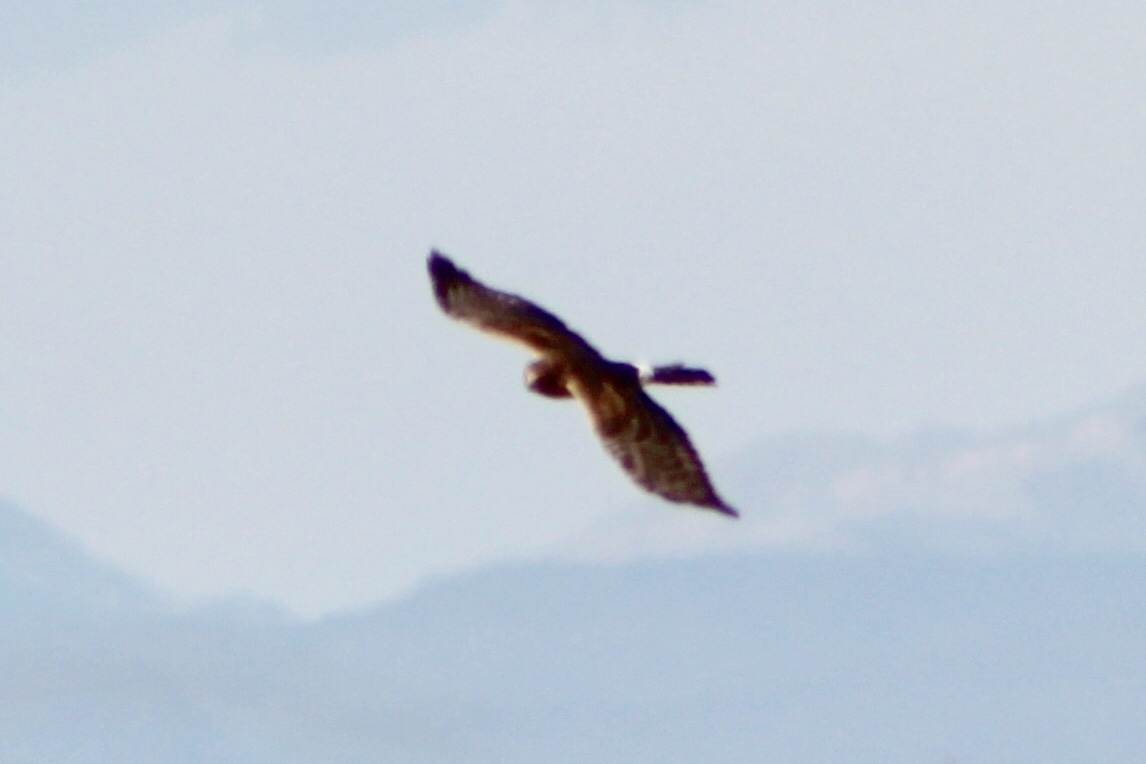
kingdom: Animalia
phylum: Chordata
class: Aves
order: Accipitriformes
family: Accipitridae
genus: Circus
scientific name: Circus cyaneus
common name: Hen harrier
